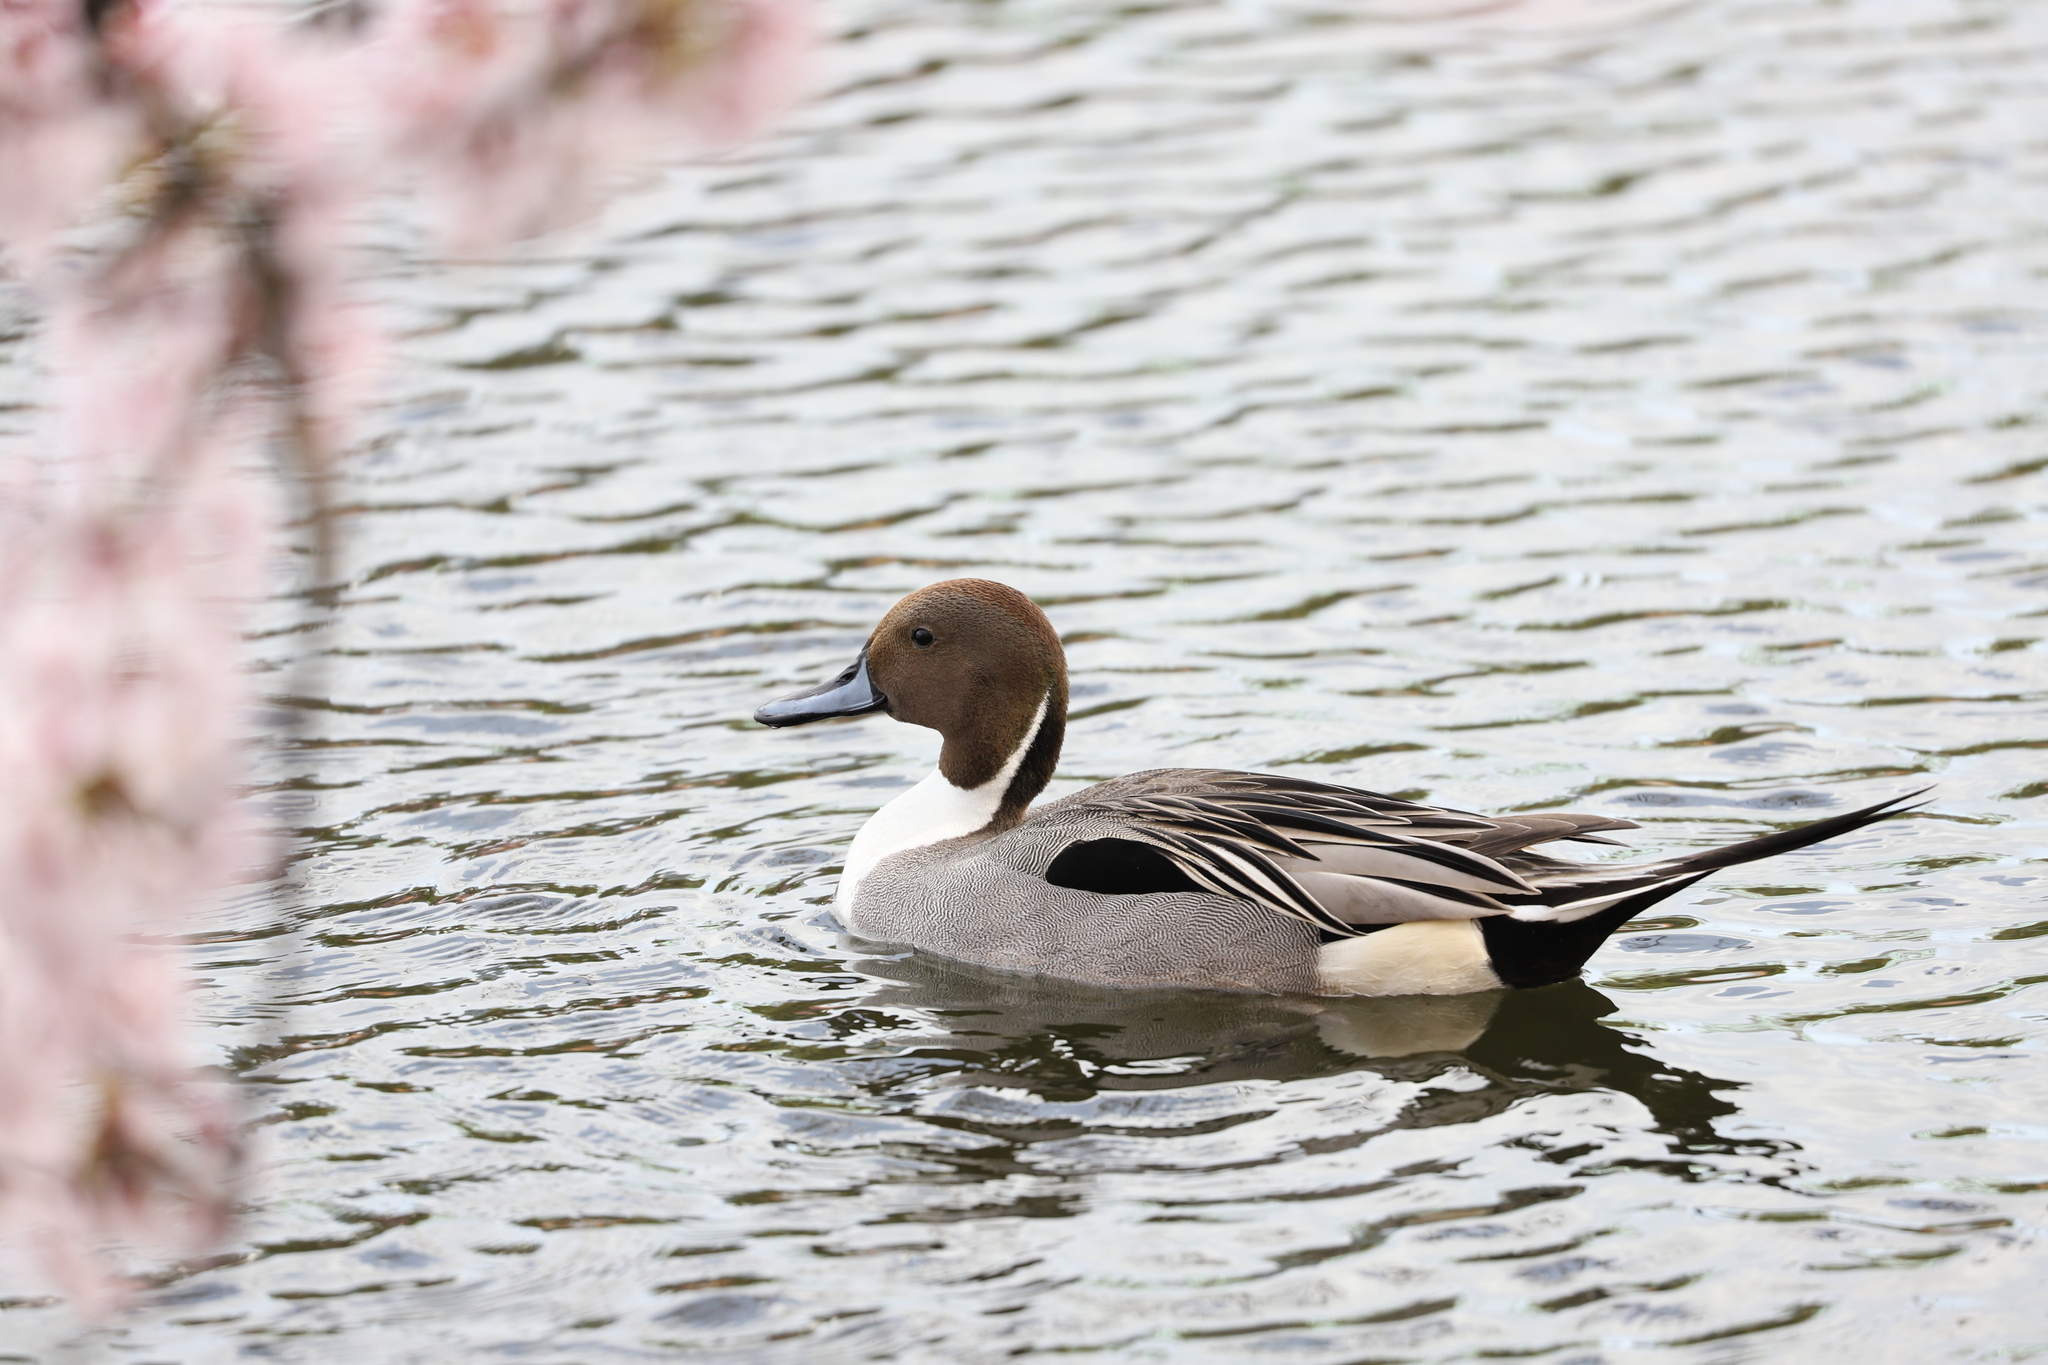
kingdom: Animalia
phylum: Chordata
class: Aves
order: Anseriformes
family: Anatidae
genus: Anas
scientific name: Anas acuta
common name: Northern pintail
